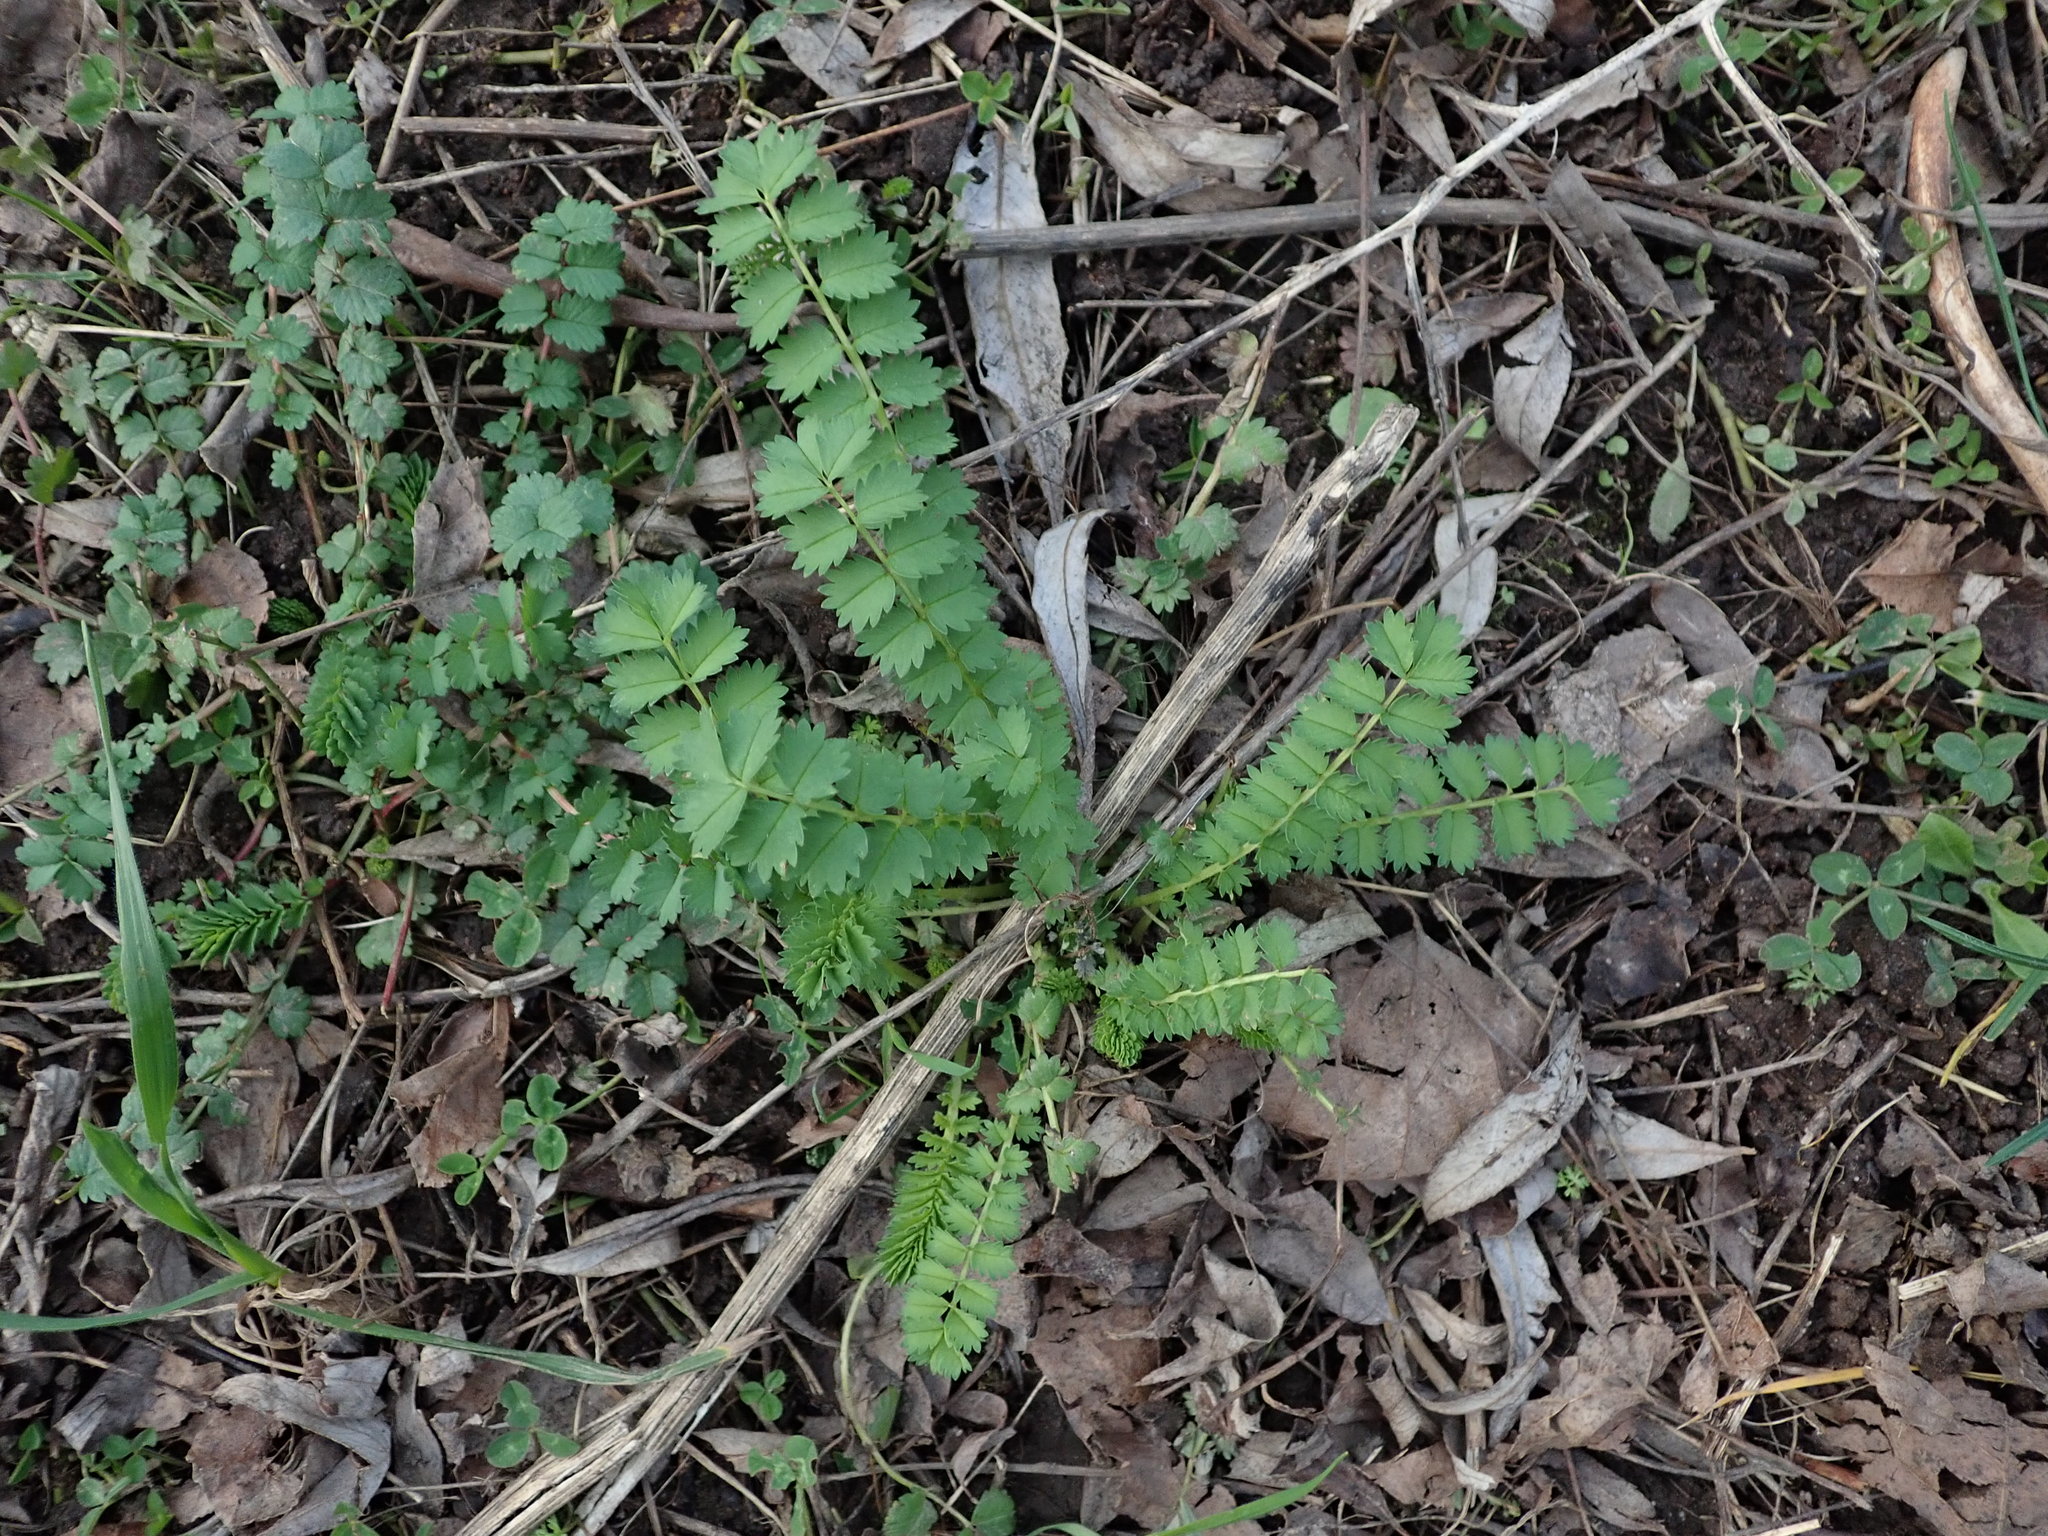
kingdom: Plantae
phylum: Tracheophyta
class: Magnoliopsida
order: Rosales
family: Rosaceae
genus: Poterium
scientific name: Poterium sanguisorba
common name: Salad burnet
